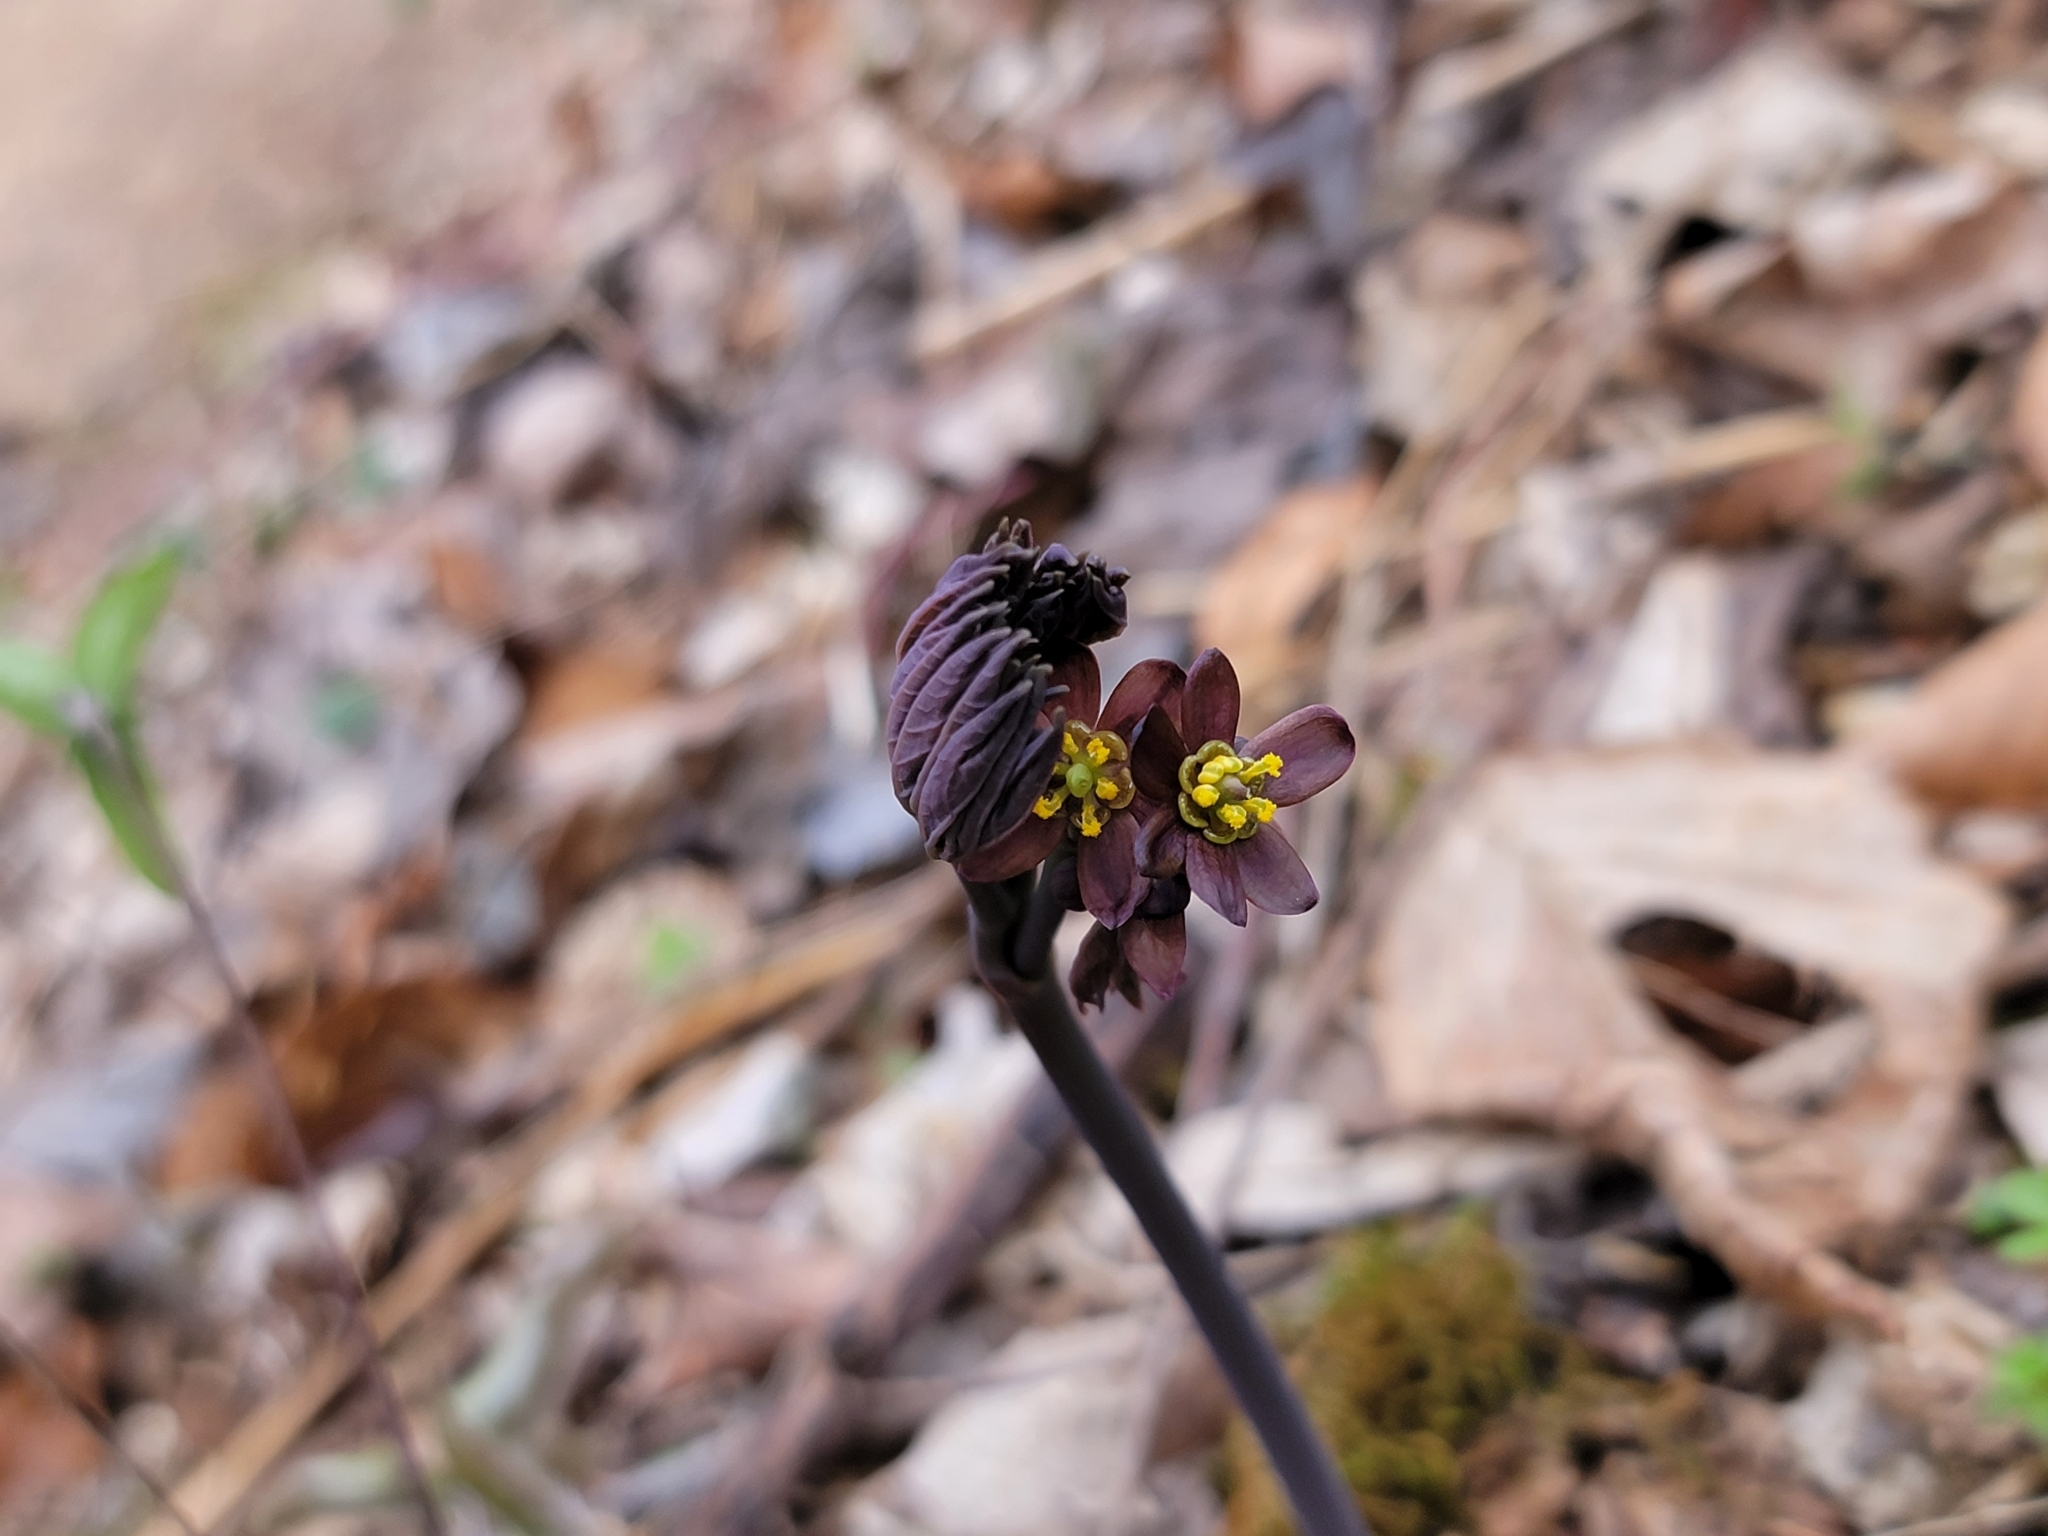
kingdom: Plantae
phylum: Tracheophyta
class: Magnoliopsida
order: Ranunculales
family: Berberidaceae
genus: Caulophyllum
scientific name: Caulophyllum giganteum
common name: Blue cohosh
